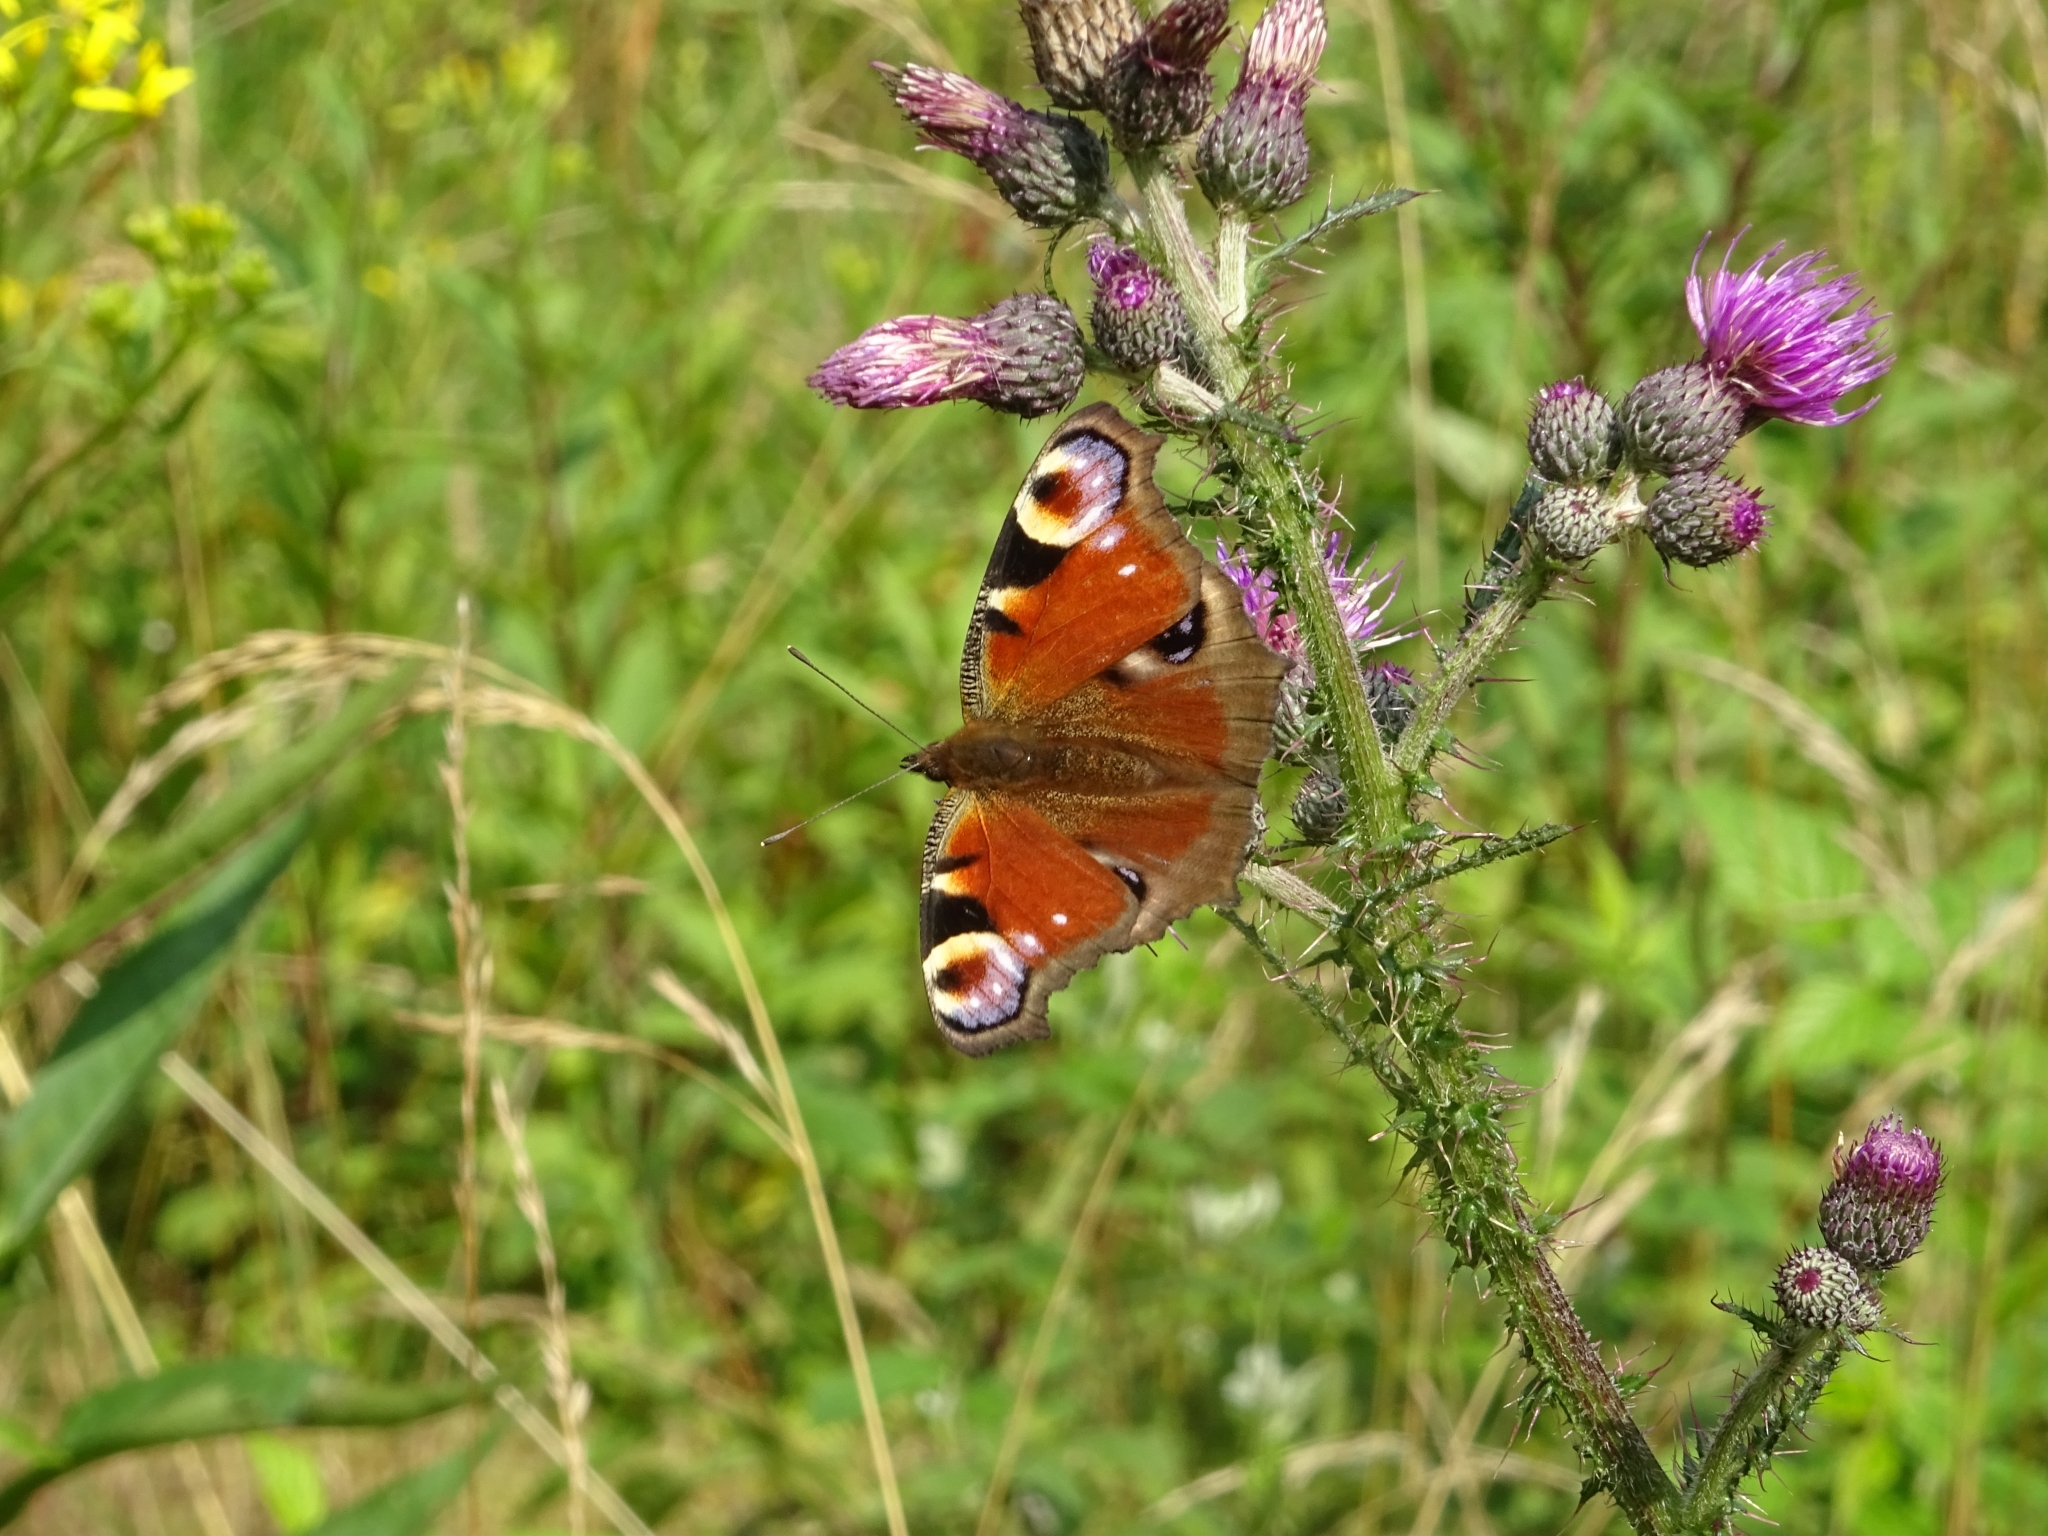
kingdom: Animalia
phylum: Arthropoda
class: Insecta
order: Lepidoptera
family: Nymphalidae
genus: Aglais
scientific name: Aglais io
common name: Peacock
